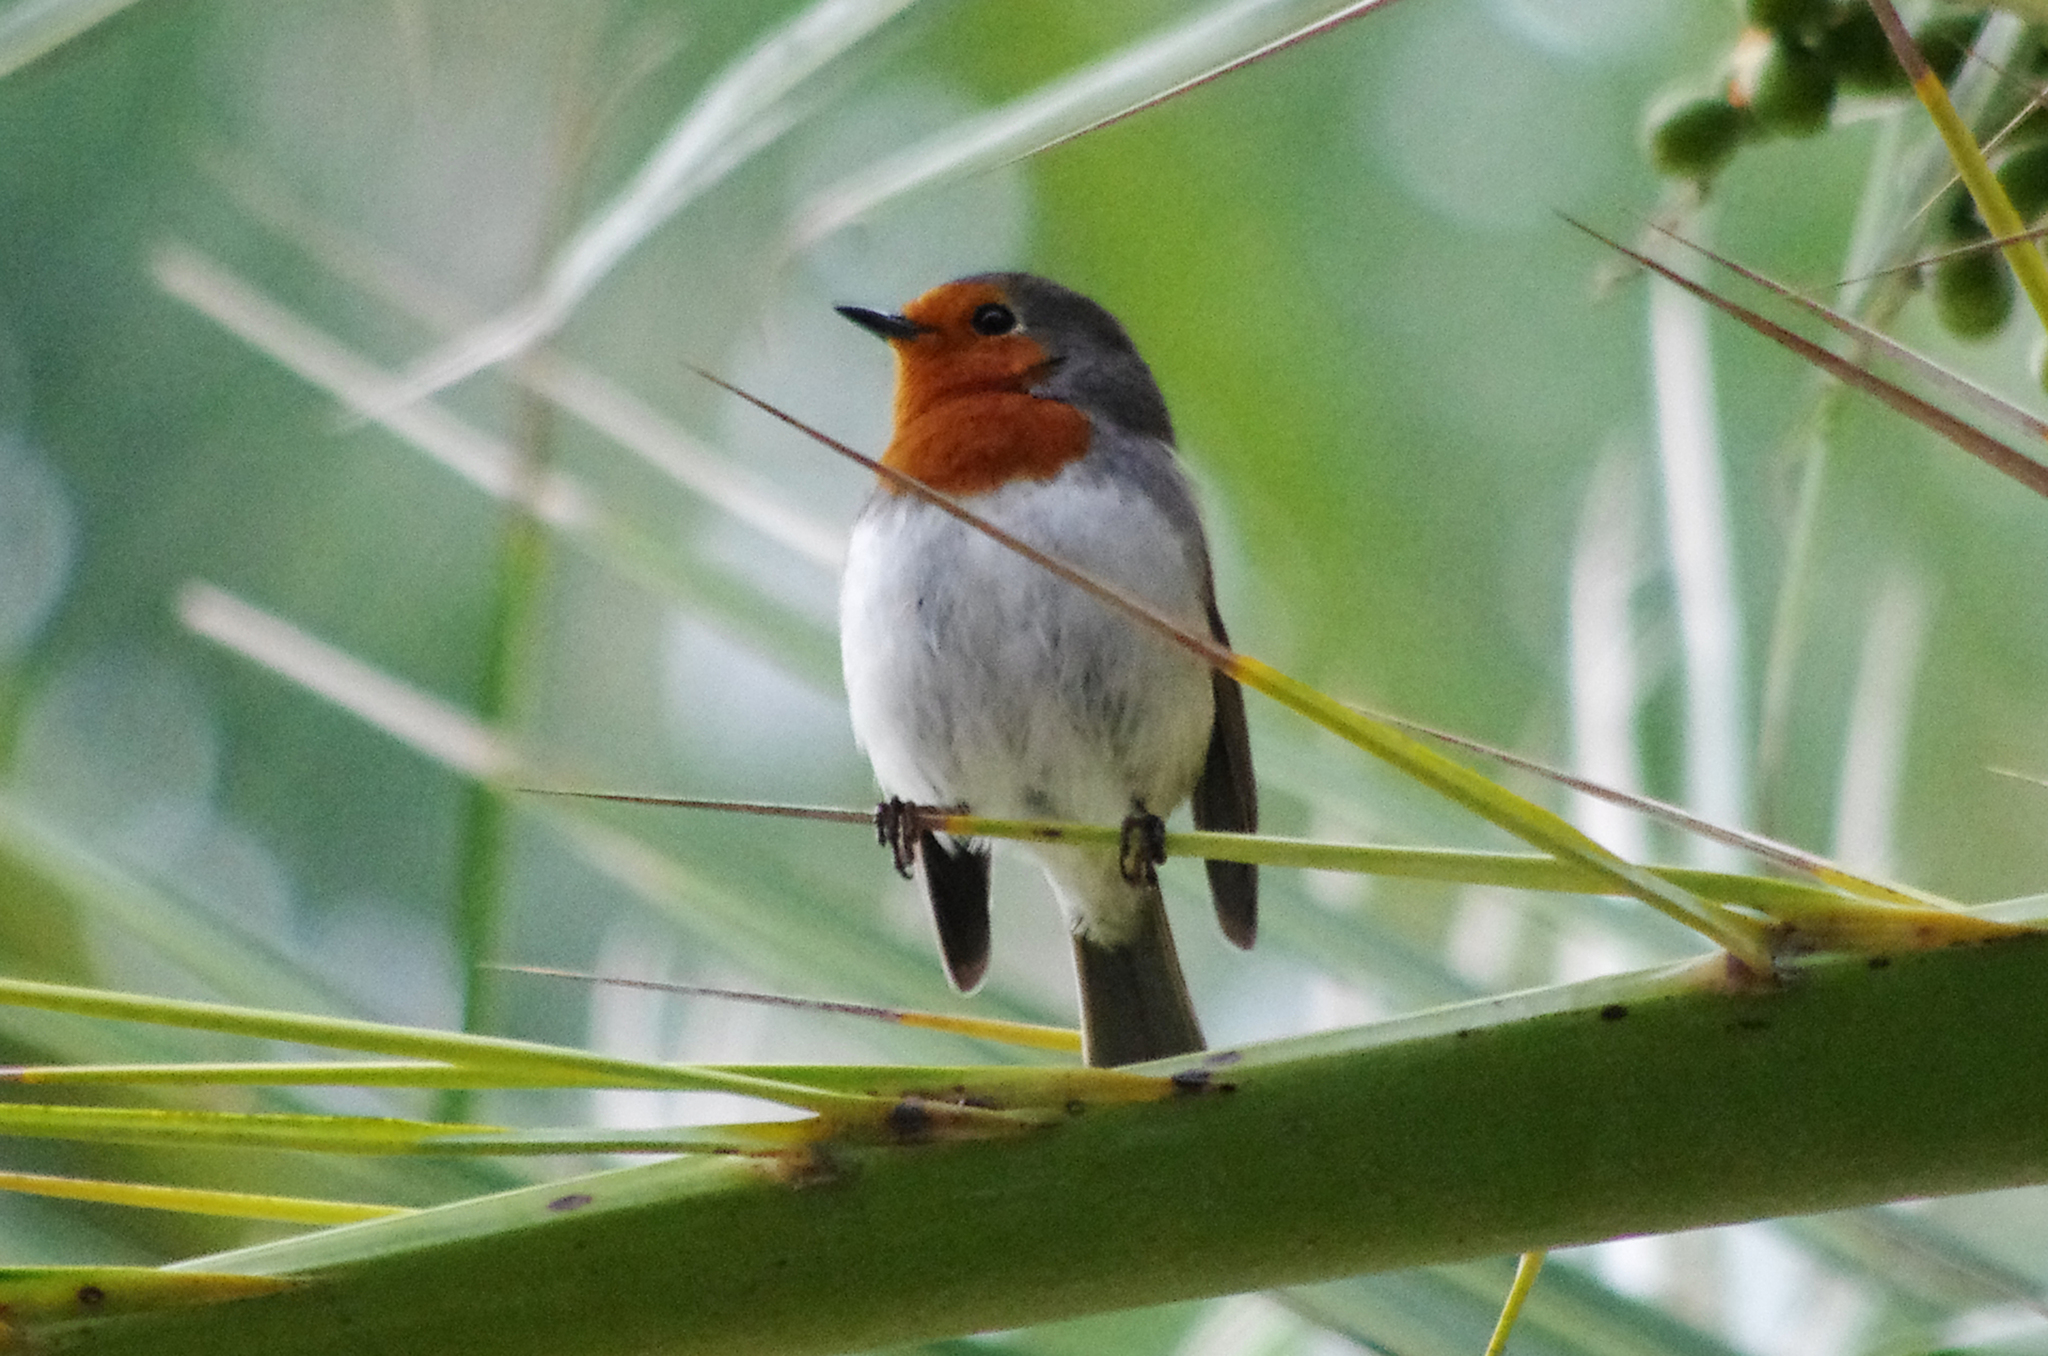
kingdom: Animalia
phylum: Chordata
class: Aves
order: Passeriformes
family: Muscicapidae
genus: Erithacus
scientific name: Erithacus rubecula
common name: European robin
